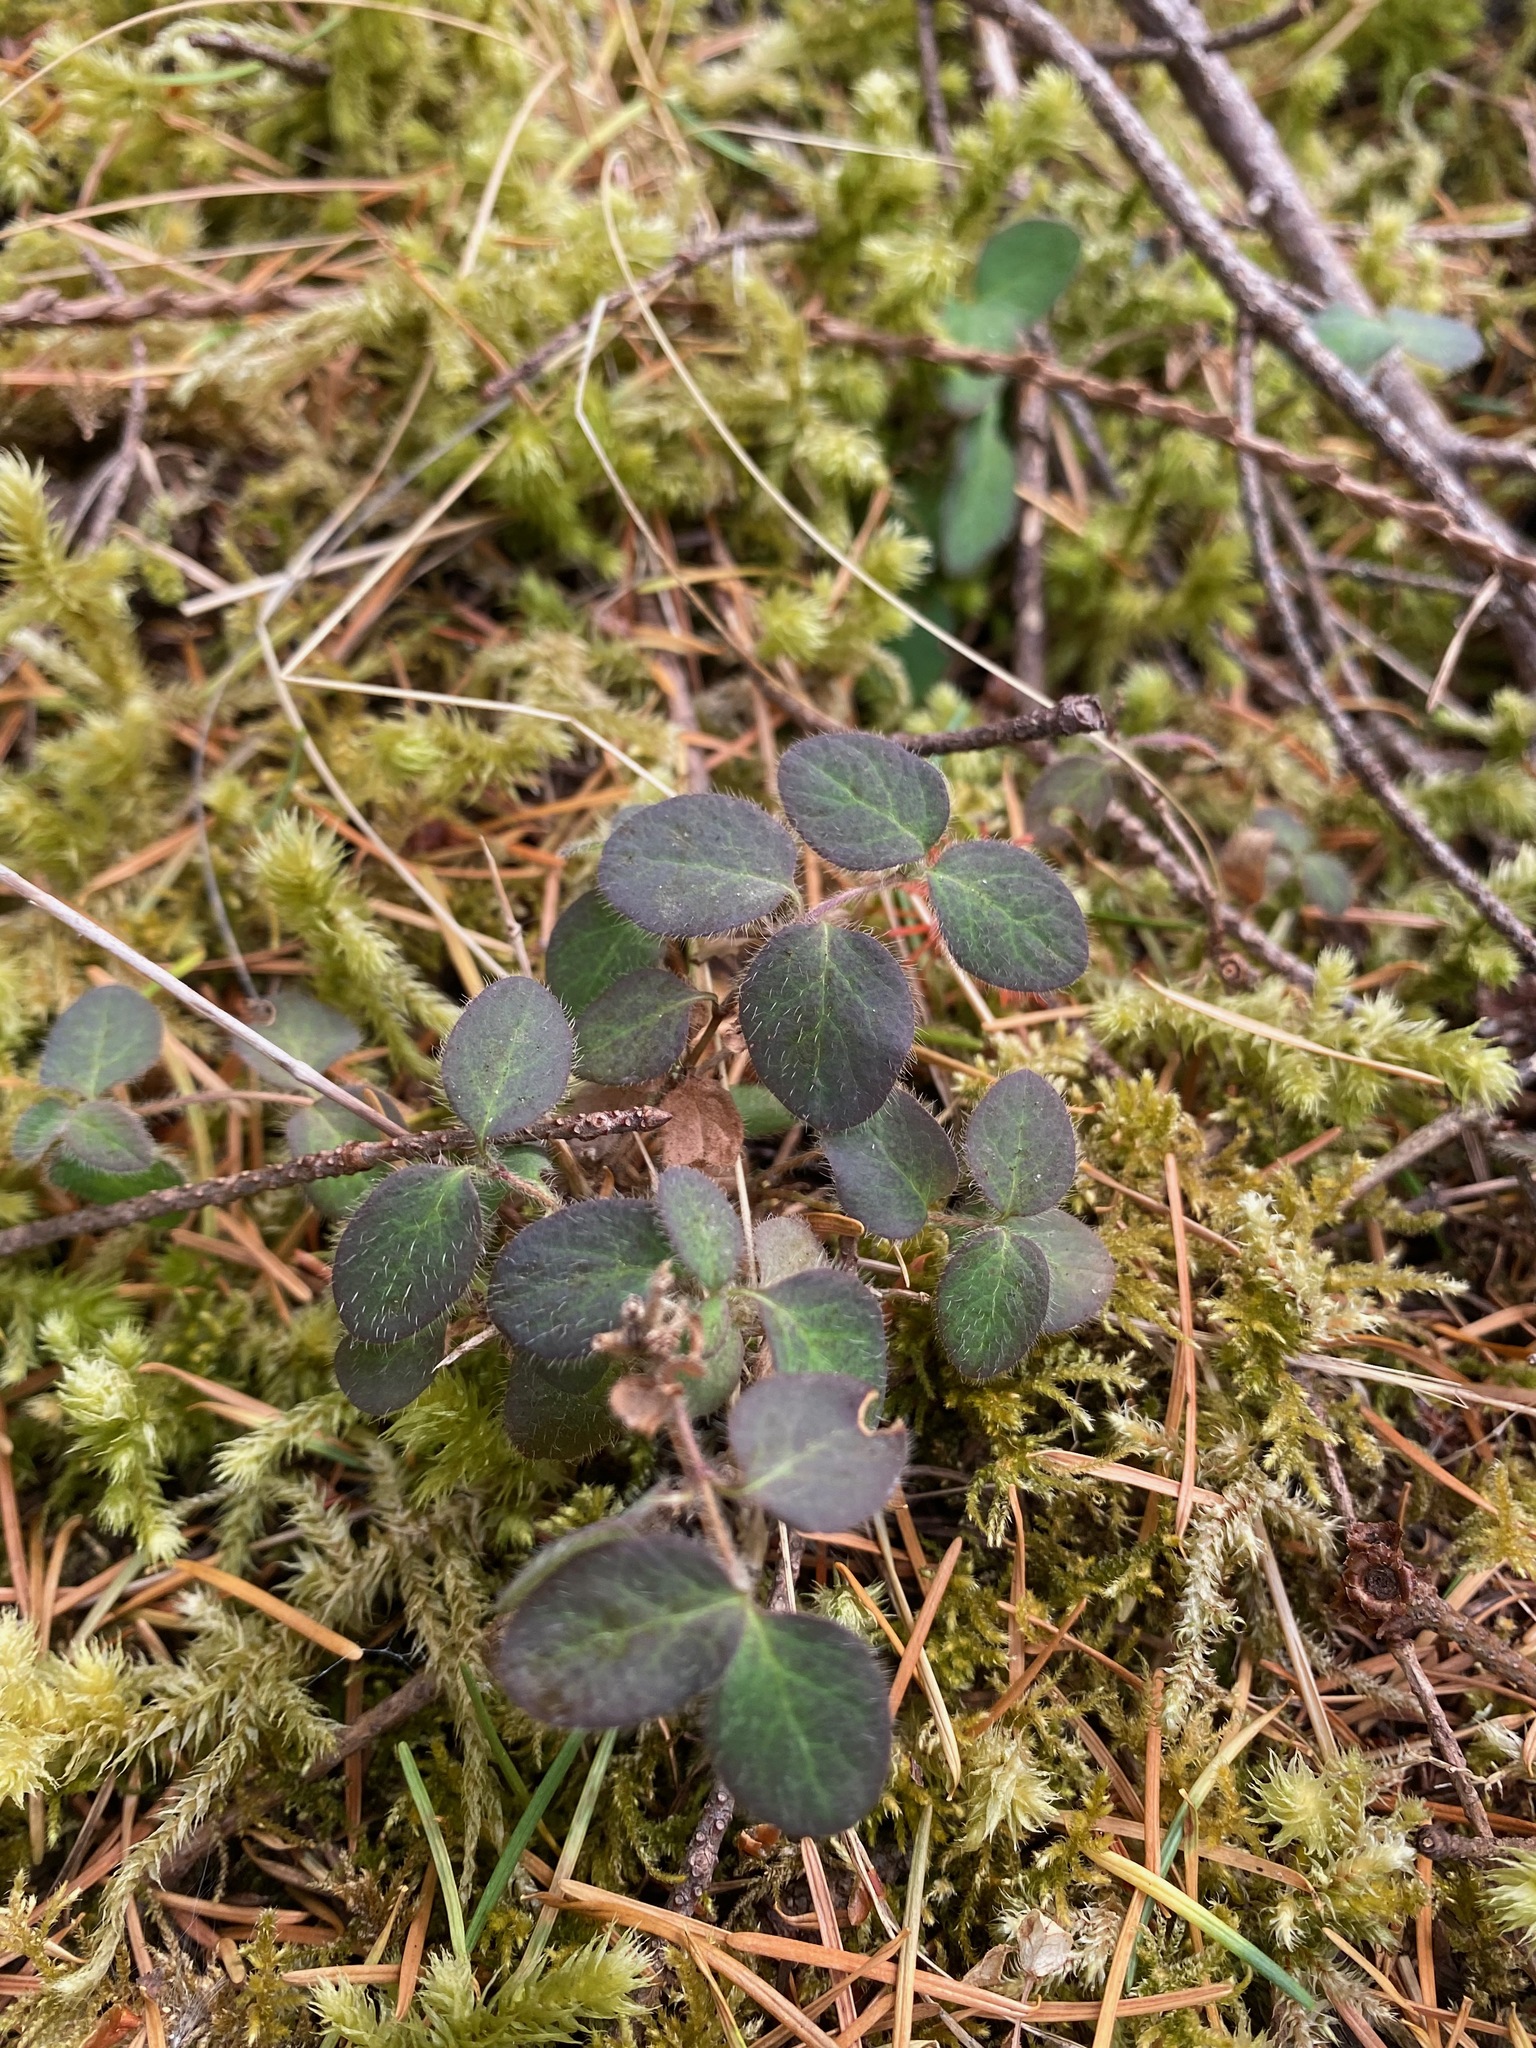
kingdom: Plantae
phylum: Tracheophyta
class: Magnoliopsida
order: Dipsacales
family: Caprifoliaceae
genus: Lonicera
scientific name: Lonicera hispidula
